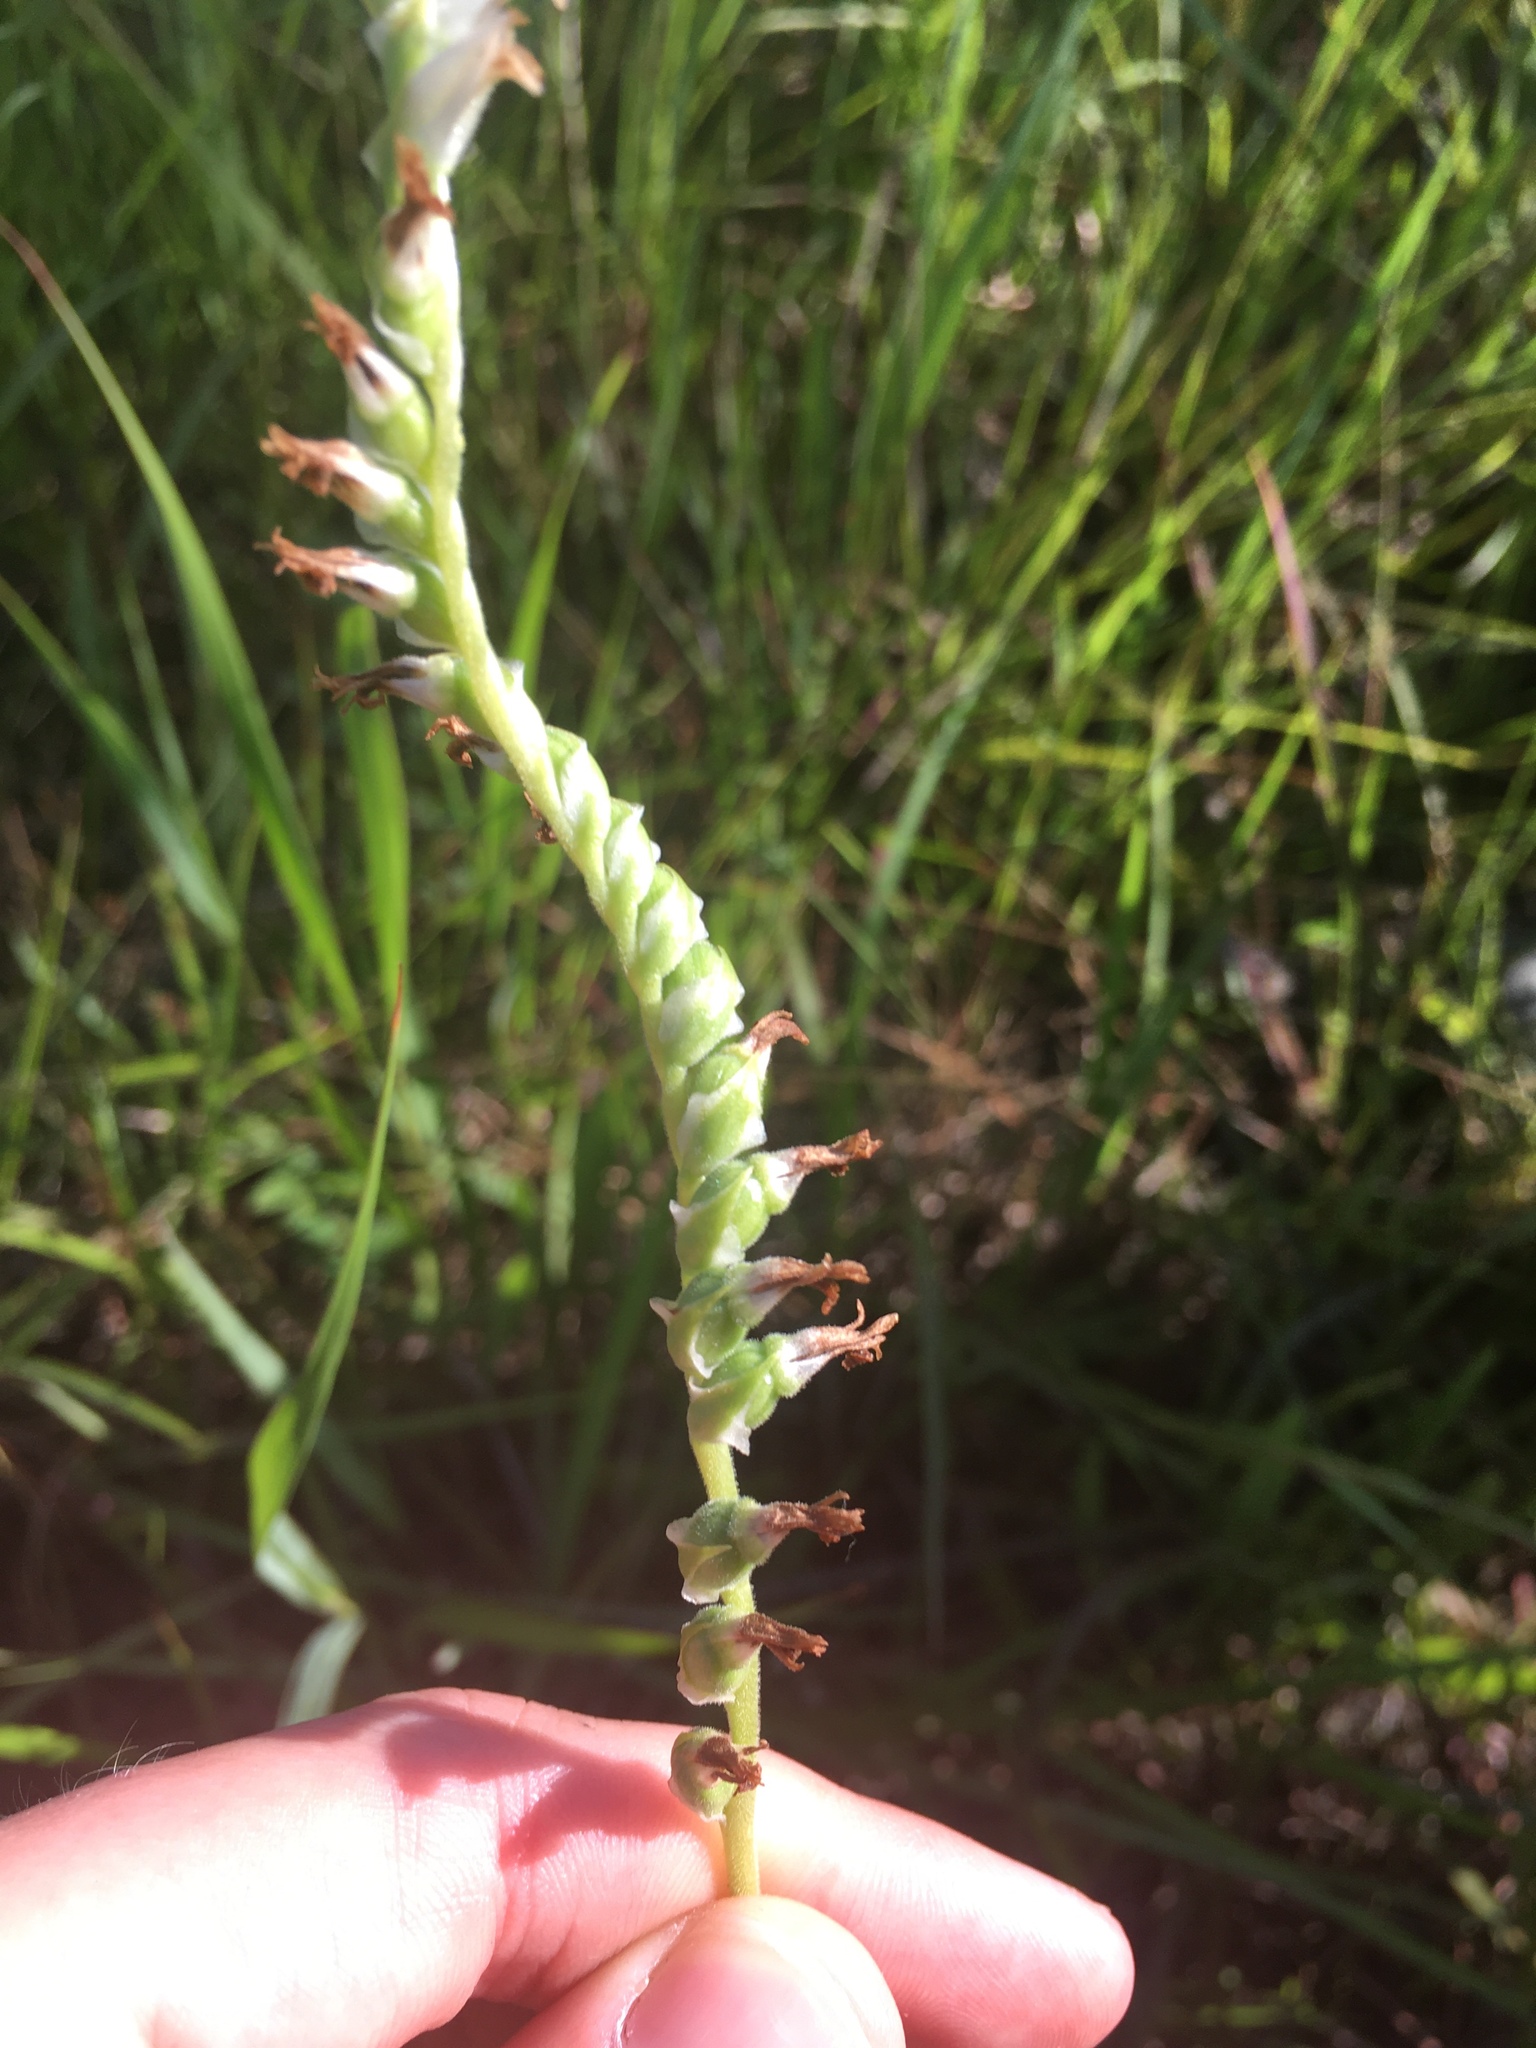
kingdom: Plantae
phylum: Tracheophyta
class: Liliopsida
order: Asparagales
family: Orchidaceae
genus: Spiranthes
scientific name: Spiranthes vernalis
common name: Spring ladies'-tresses
